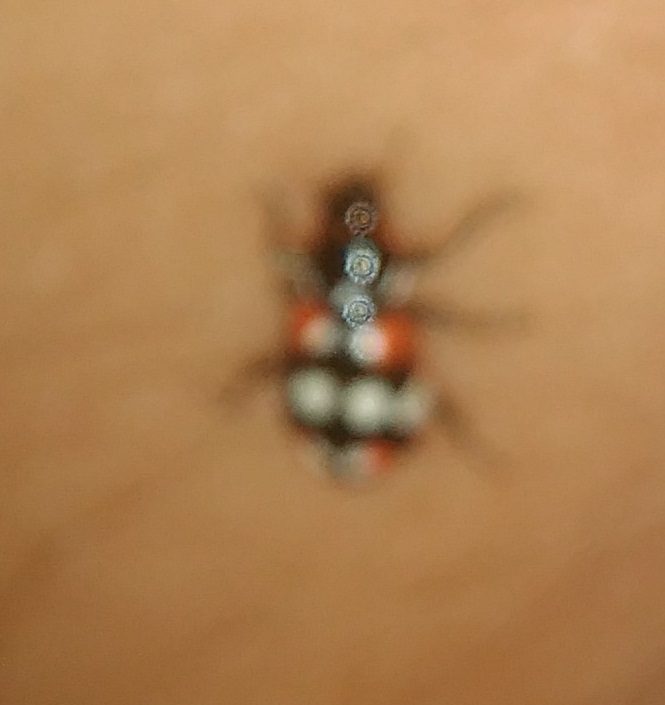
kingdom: Animalia
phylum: Arthropoda
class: Insecta
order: Coleoptera
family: Coccinellidae
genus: Eriopis
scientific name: Eriopis connexa
